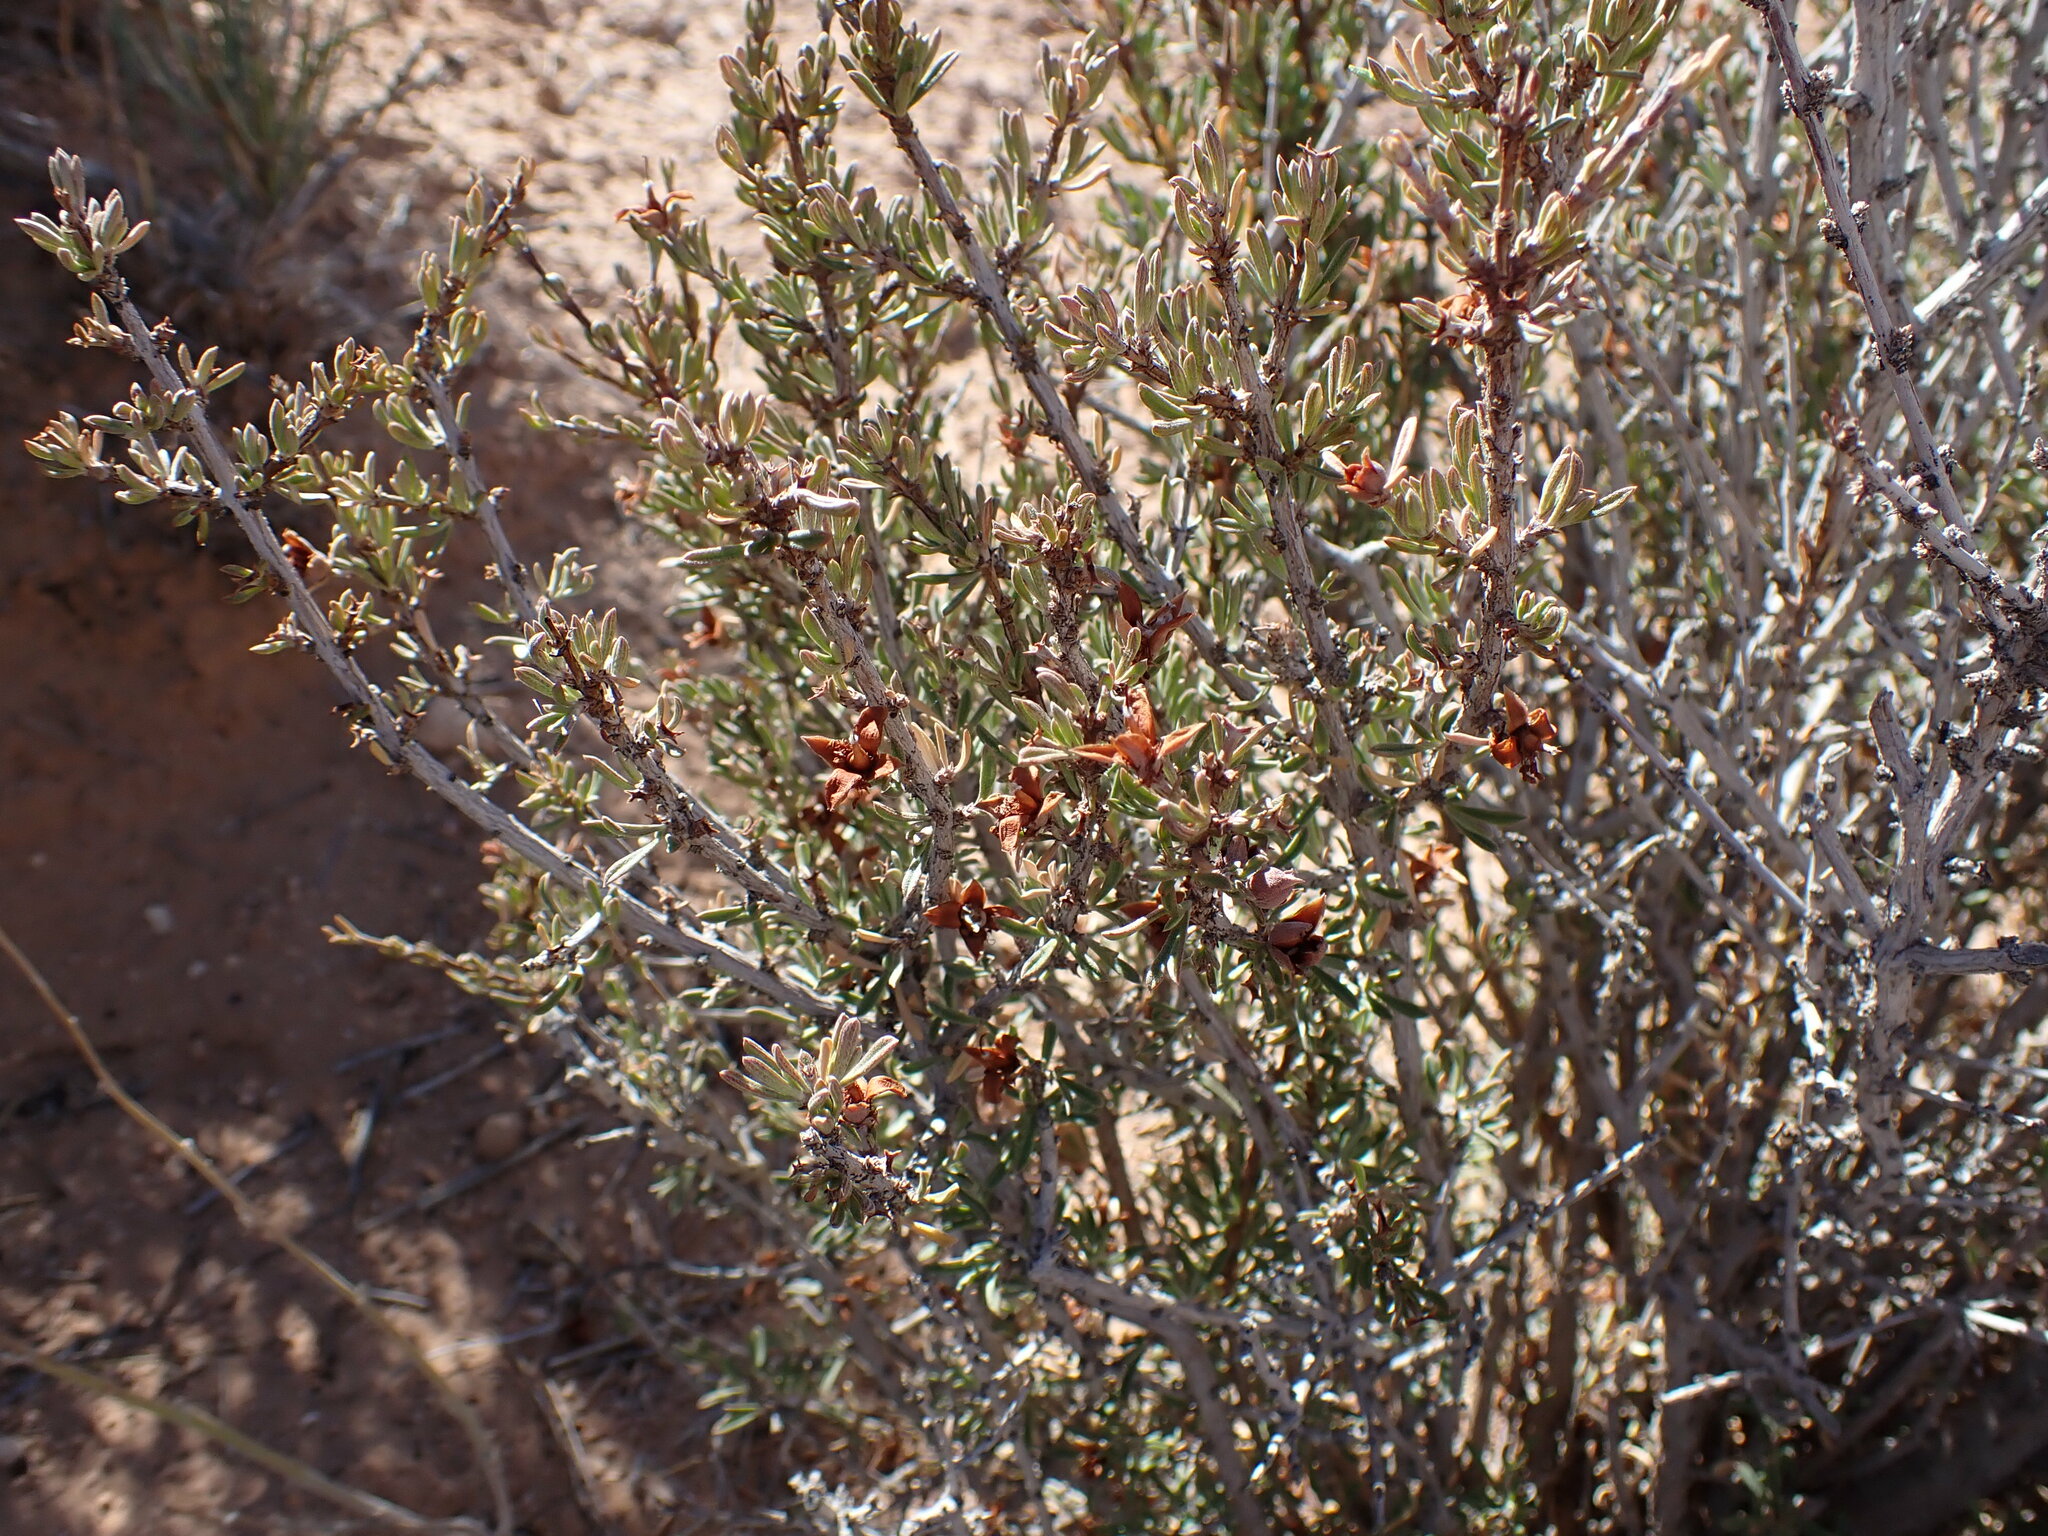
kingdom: Plantae
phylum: Tracheophyta
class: Magnoliopsida
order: Rosales
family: Rosaceae
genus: Cercocarpus
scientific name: Cercocarpus intricatus
